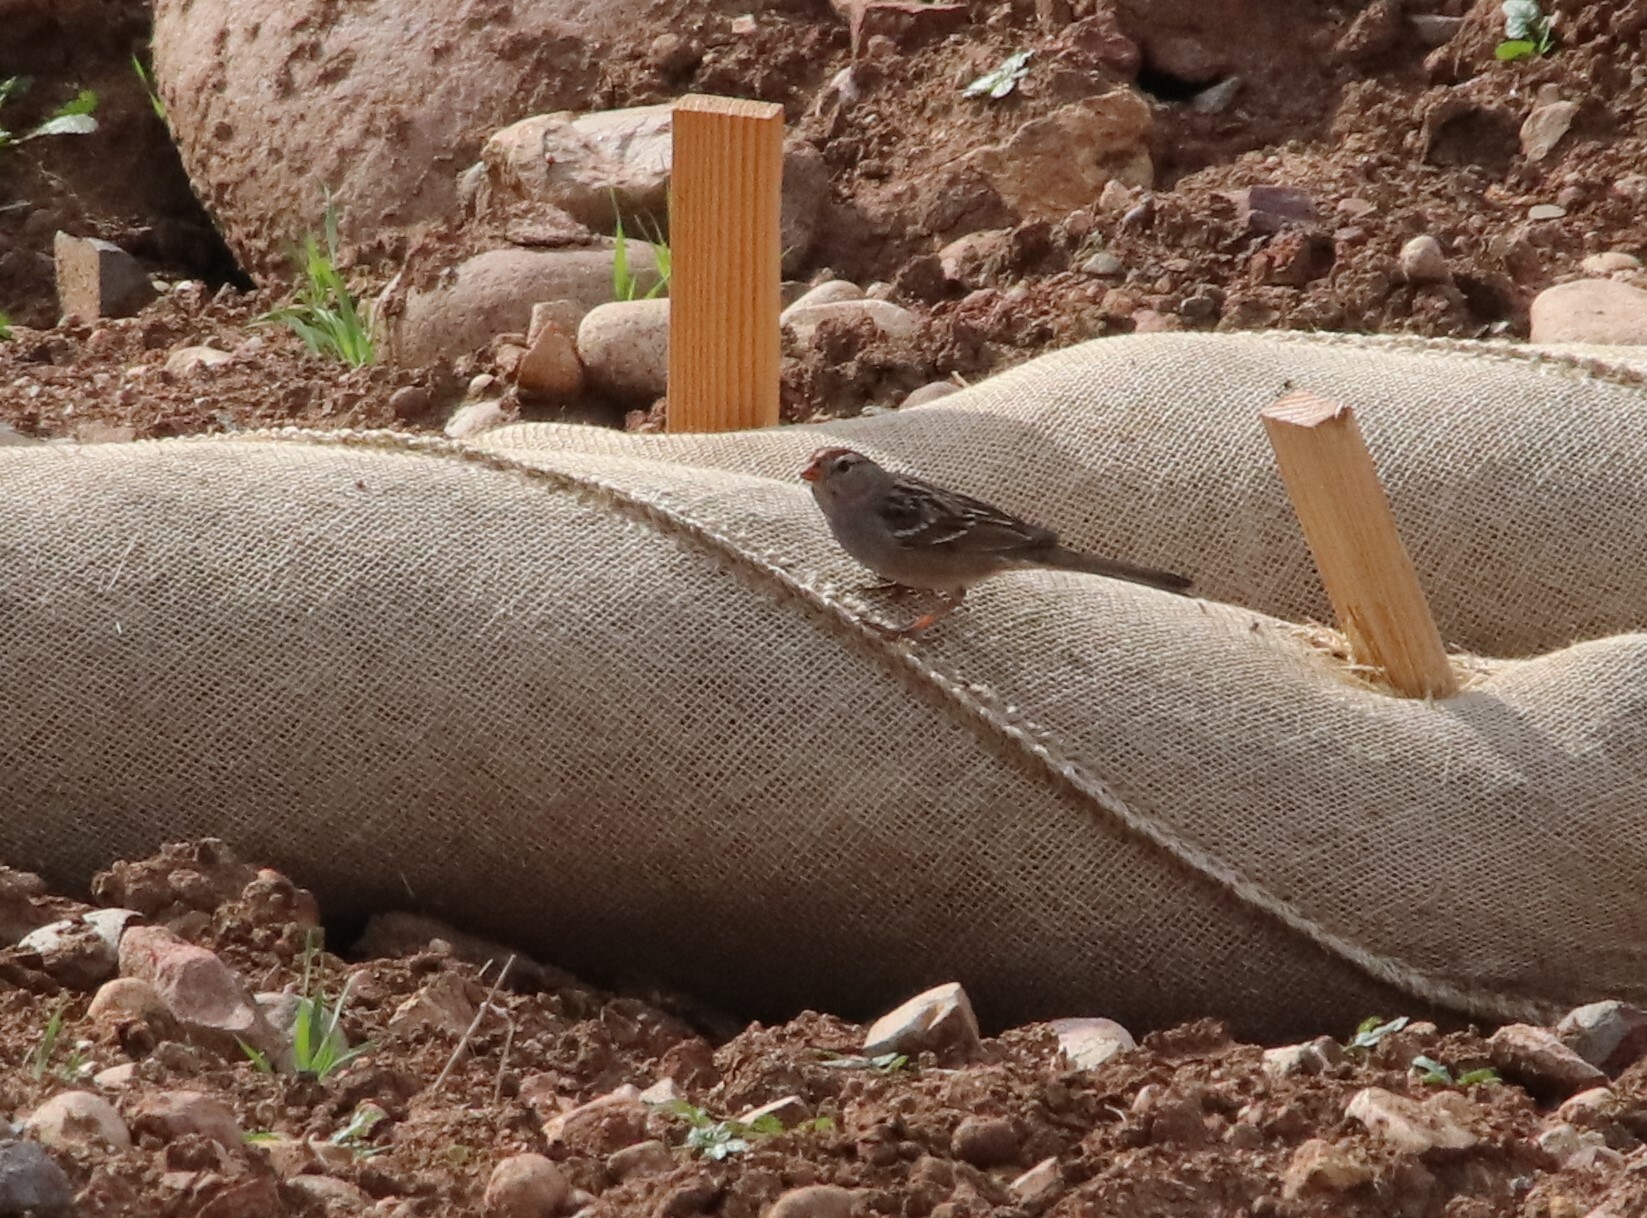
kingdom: Animalia
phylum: Chordata
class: Aves
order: Passeriformes
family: Passerellidae
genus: Zonotrichia
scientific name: Zonotrichia leucophrys
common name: White-crowned sparrow
